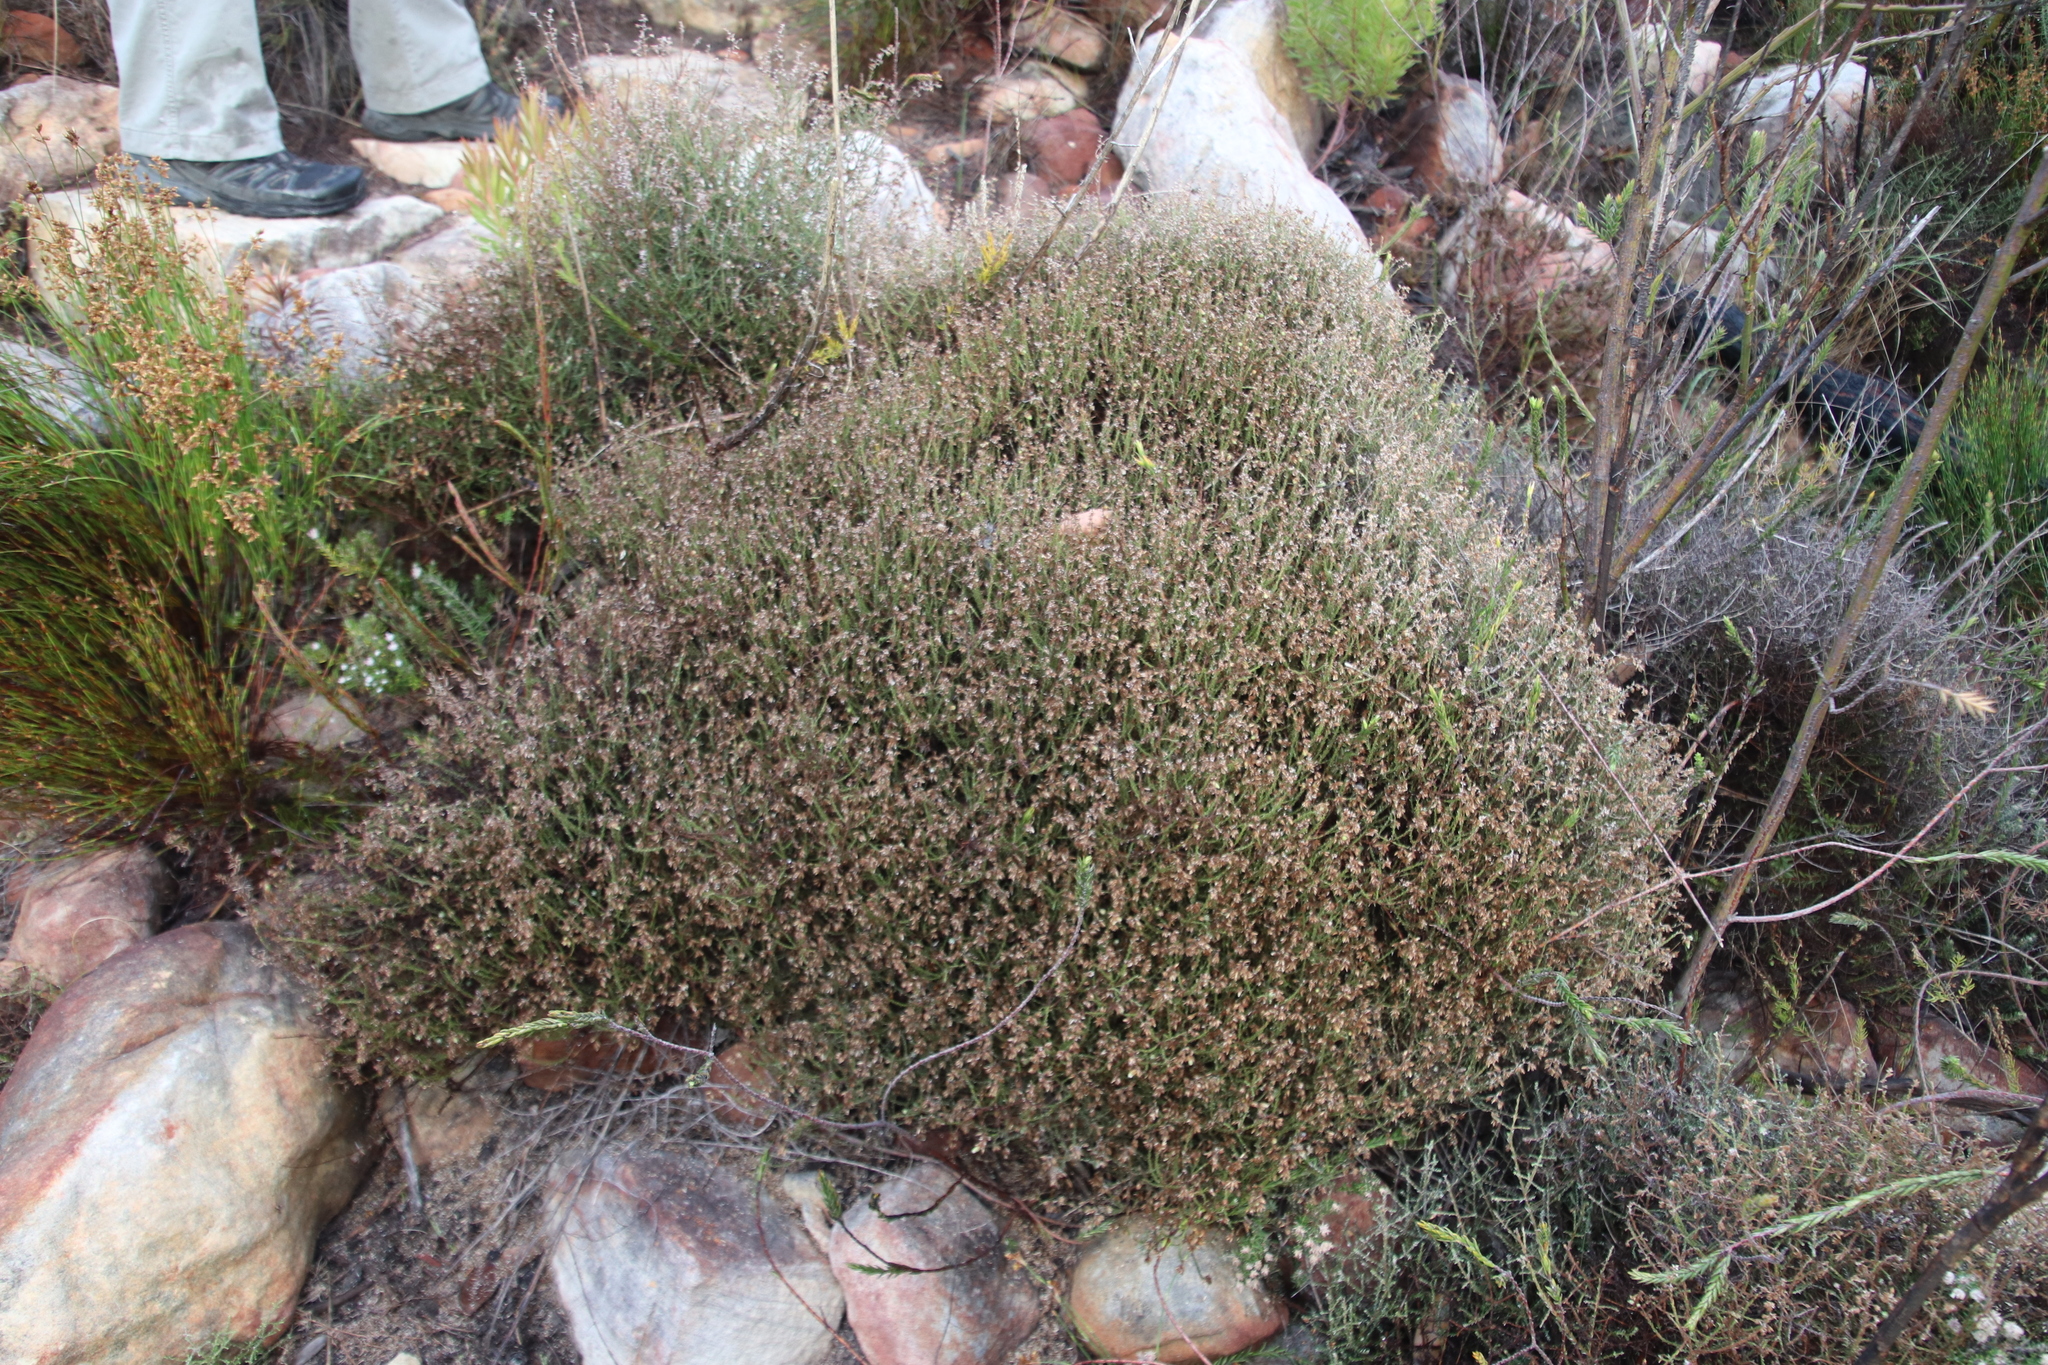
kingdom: Plantae
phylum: Tracheophyta
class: Magnoliopsida
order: Asterales
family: Asteraceae
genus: Myrovernix
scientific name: Myrovernix scaber
